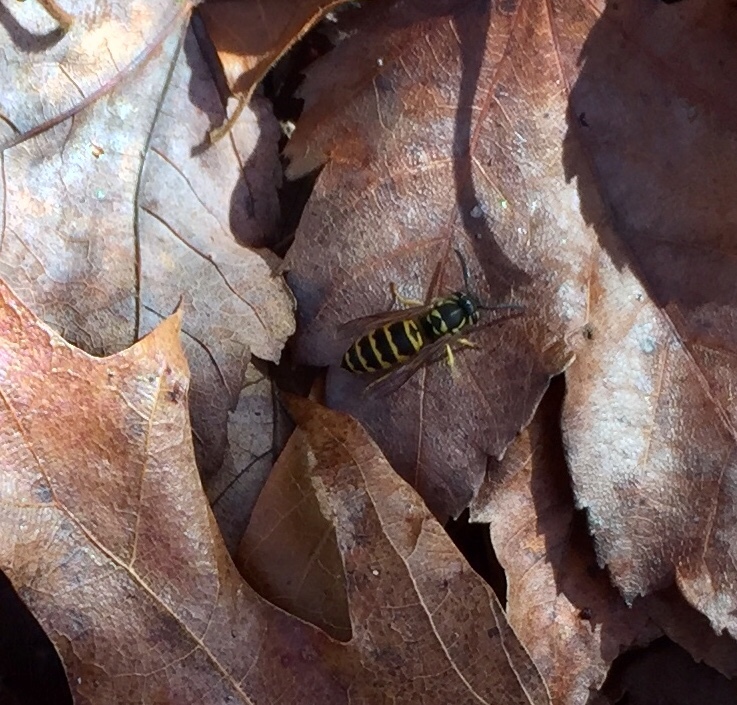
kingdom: Animalia
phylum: Arthropoda
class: Insecta
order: Hymenoptera
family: Vespidae
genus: Vespula
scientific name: Vespula maculifrons
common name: Eastern yellowjacket
